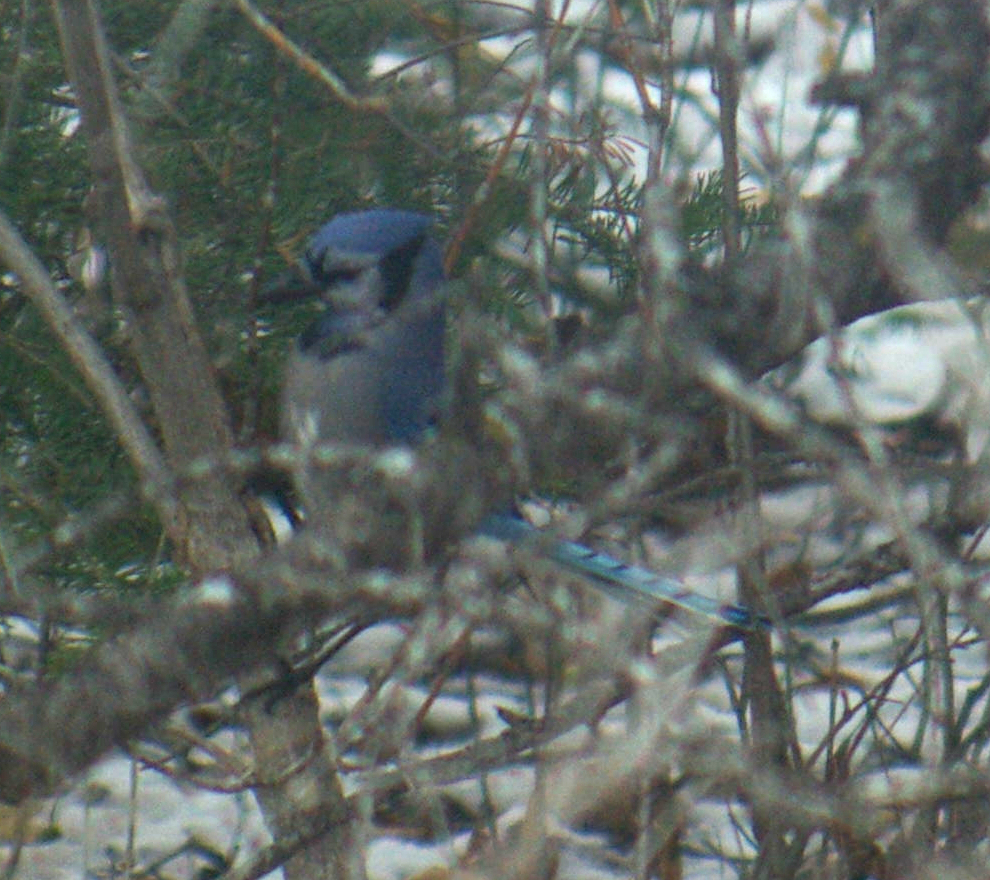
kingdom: Animalia
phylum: Chordata
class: Aves
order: Passeriformes
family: Corvidae
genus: Cyanocitta
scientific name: Cyanocitta cristata
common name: Blue jay
